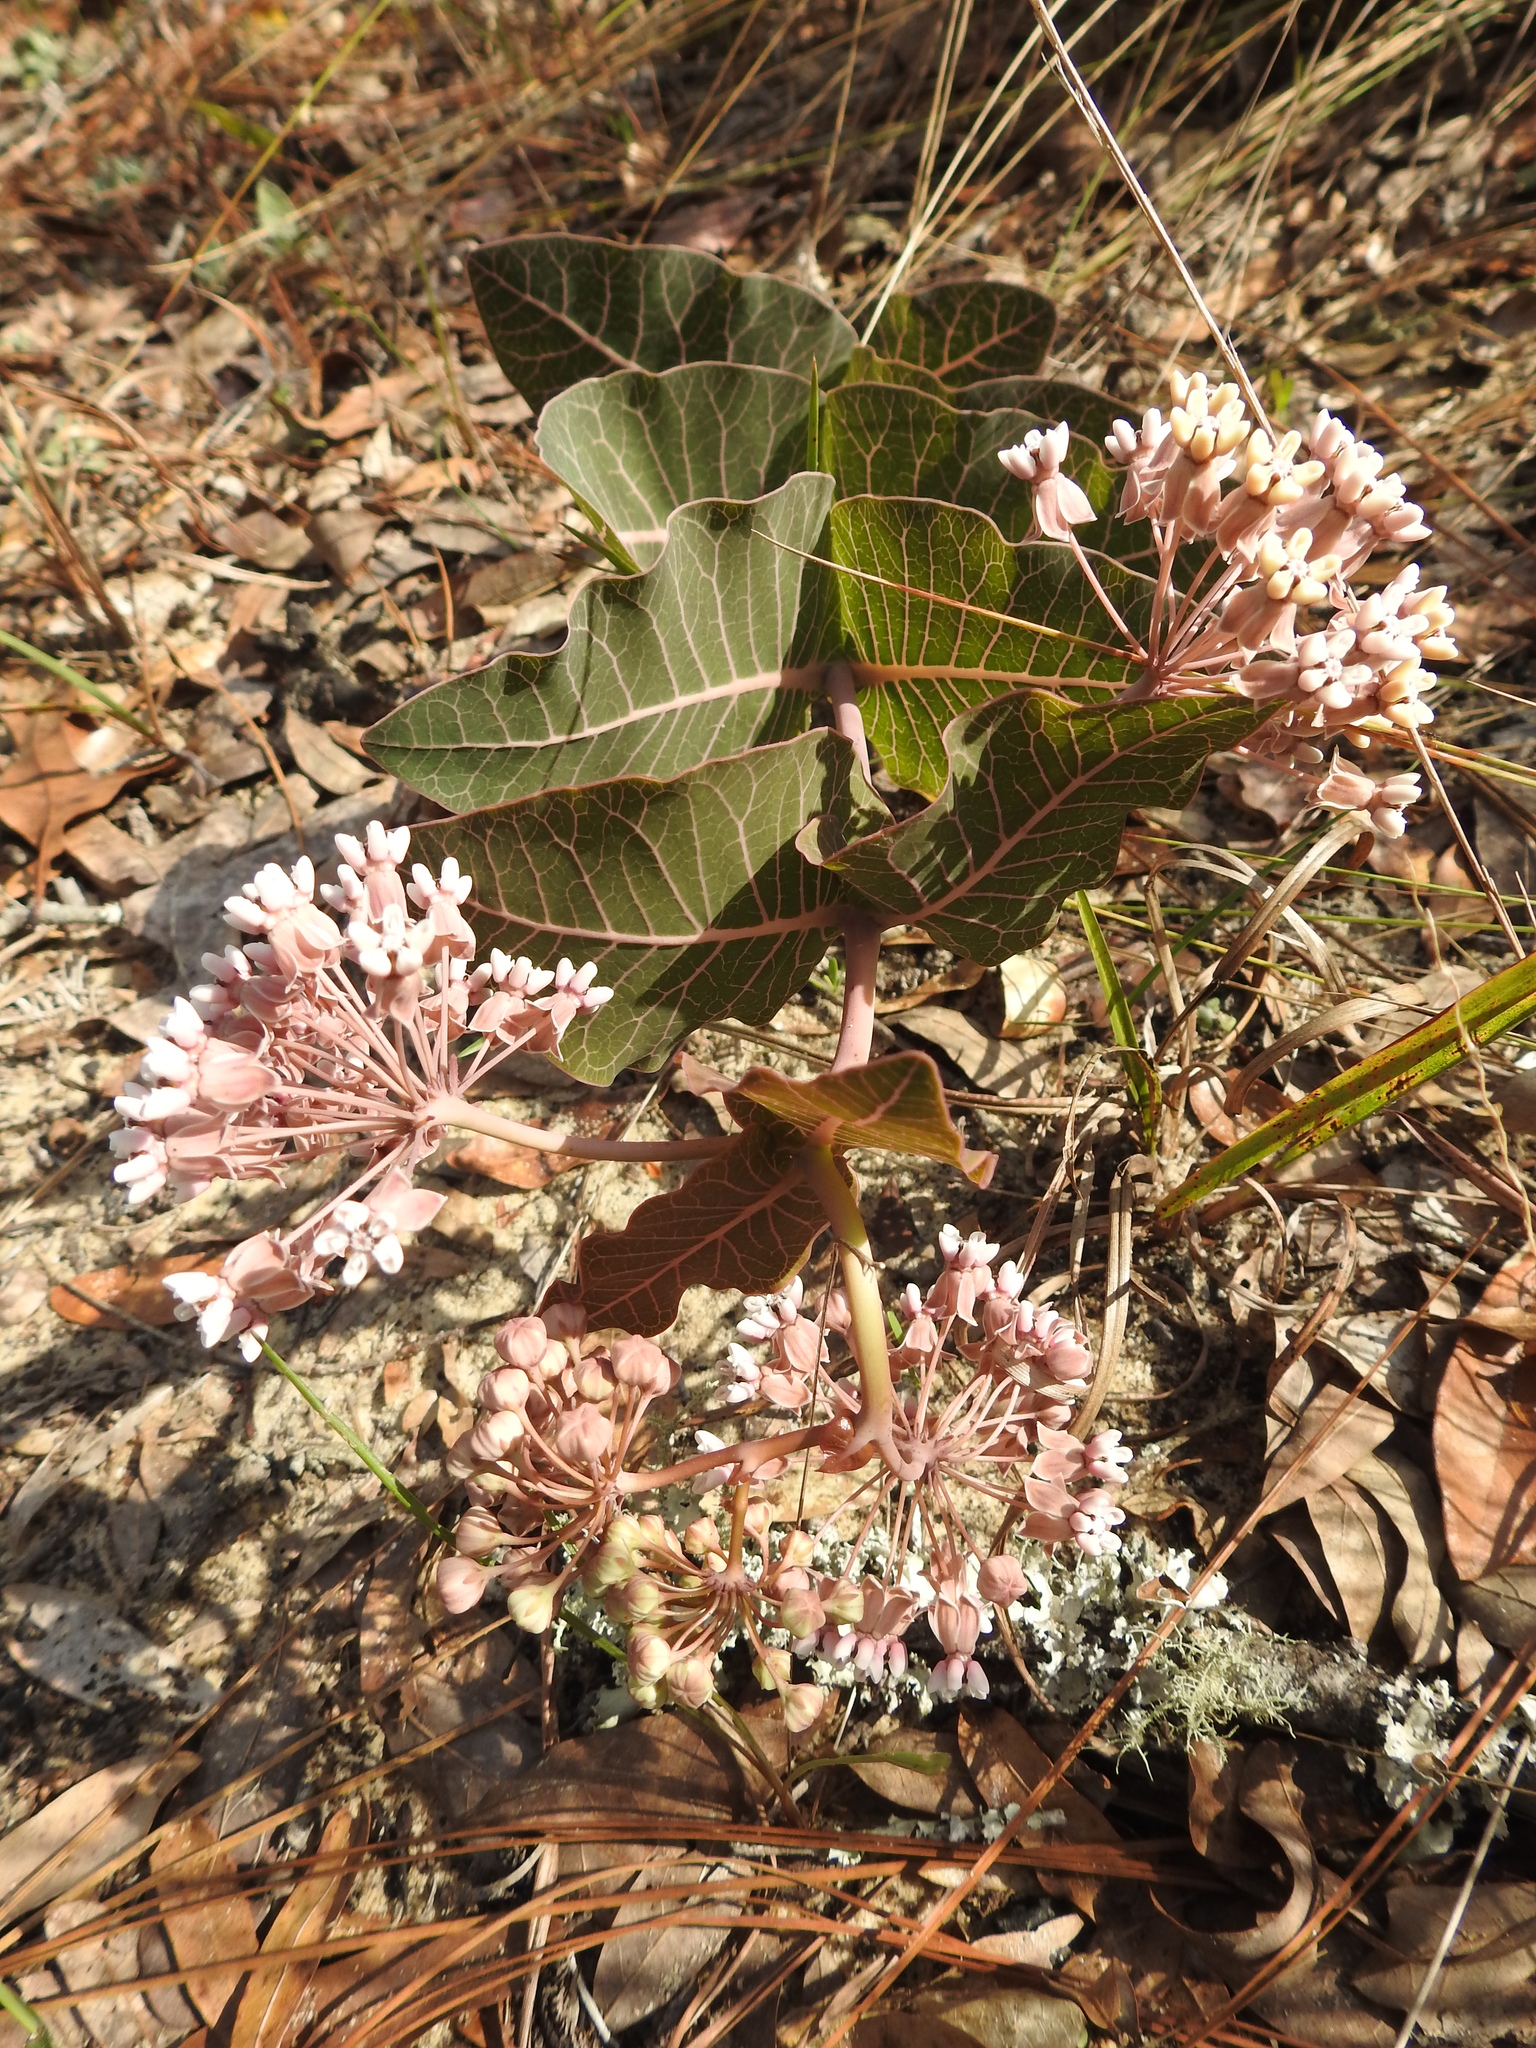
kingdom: Plantae
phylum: Tracheophyta
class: Magnoliopsida
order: Gentianales
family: Apocynaceae
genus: Asclepias
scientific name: Asclepias humistrata
